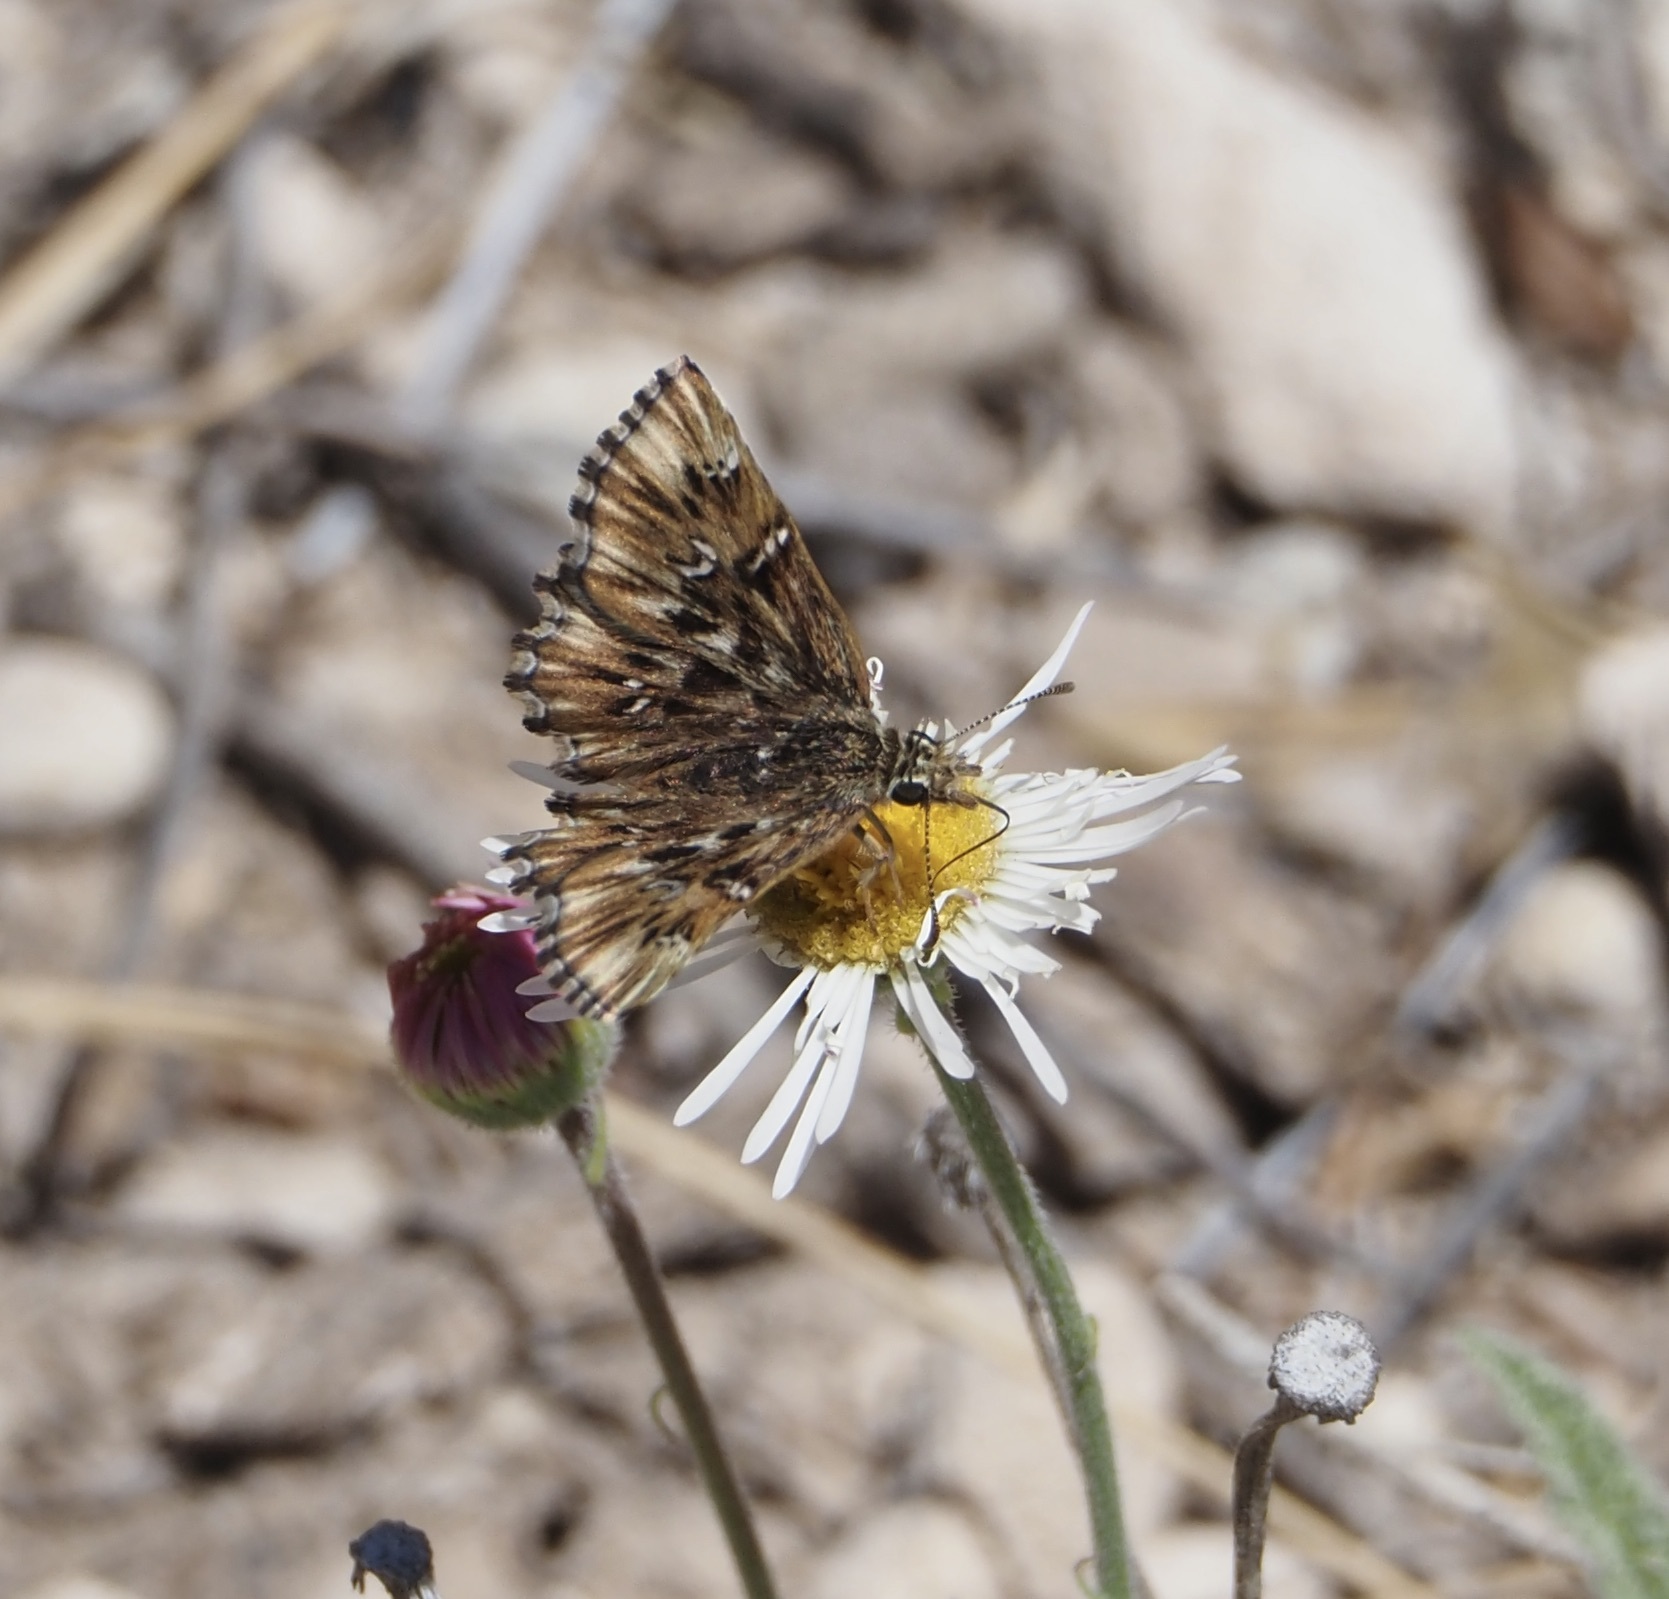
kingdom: Animalia
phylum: Arthropoda
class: Insecta
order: Lepidoptera
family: Hesperiidae
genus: Celotes
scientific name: Celotes nessus
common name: Common streaky-skipper
